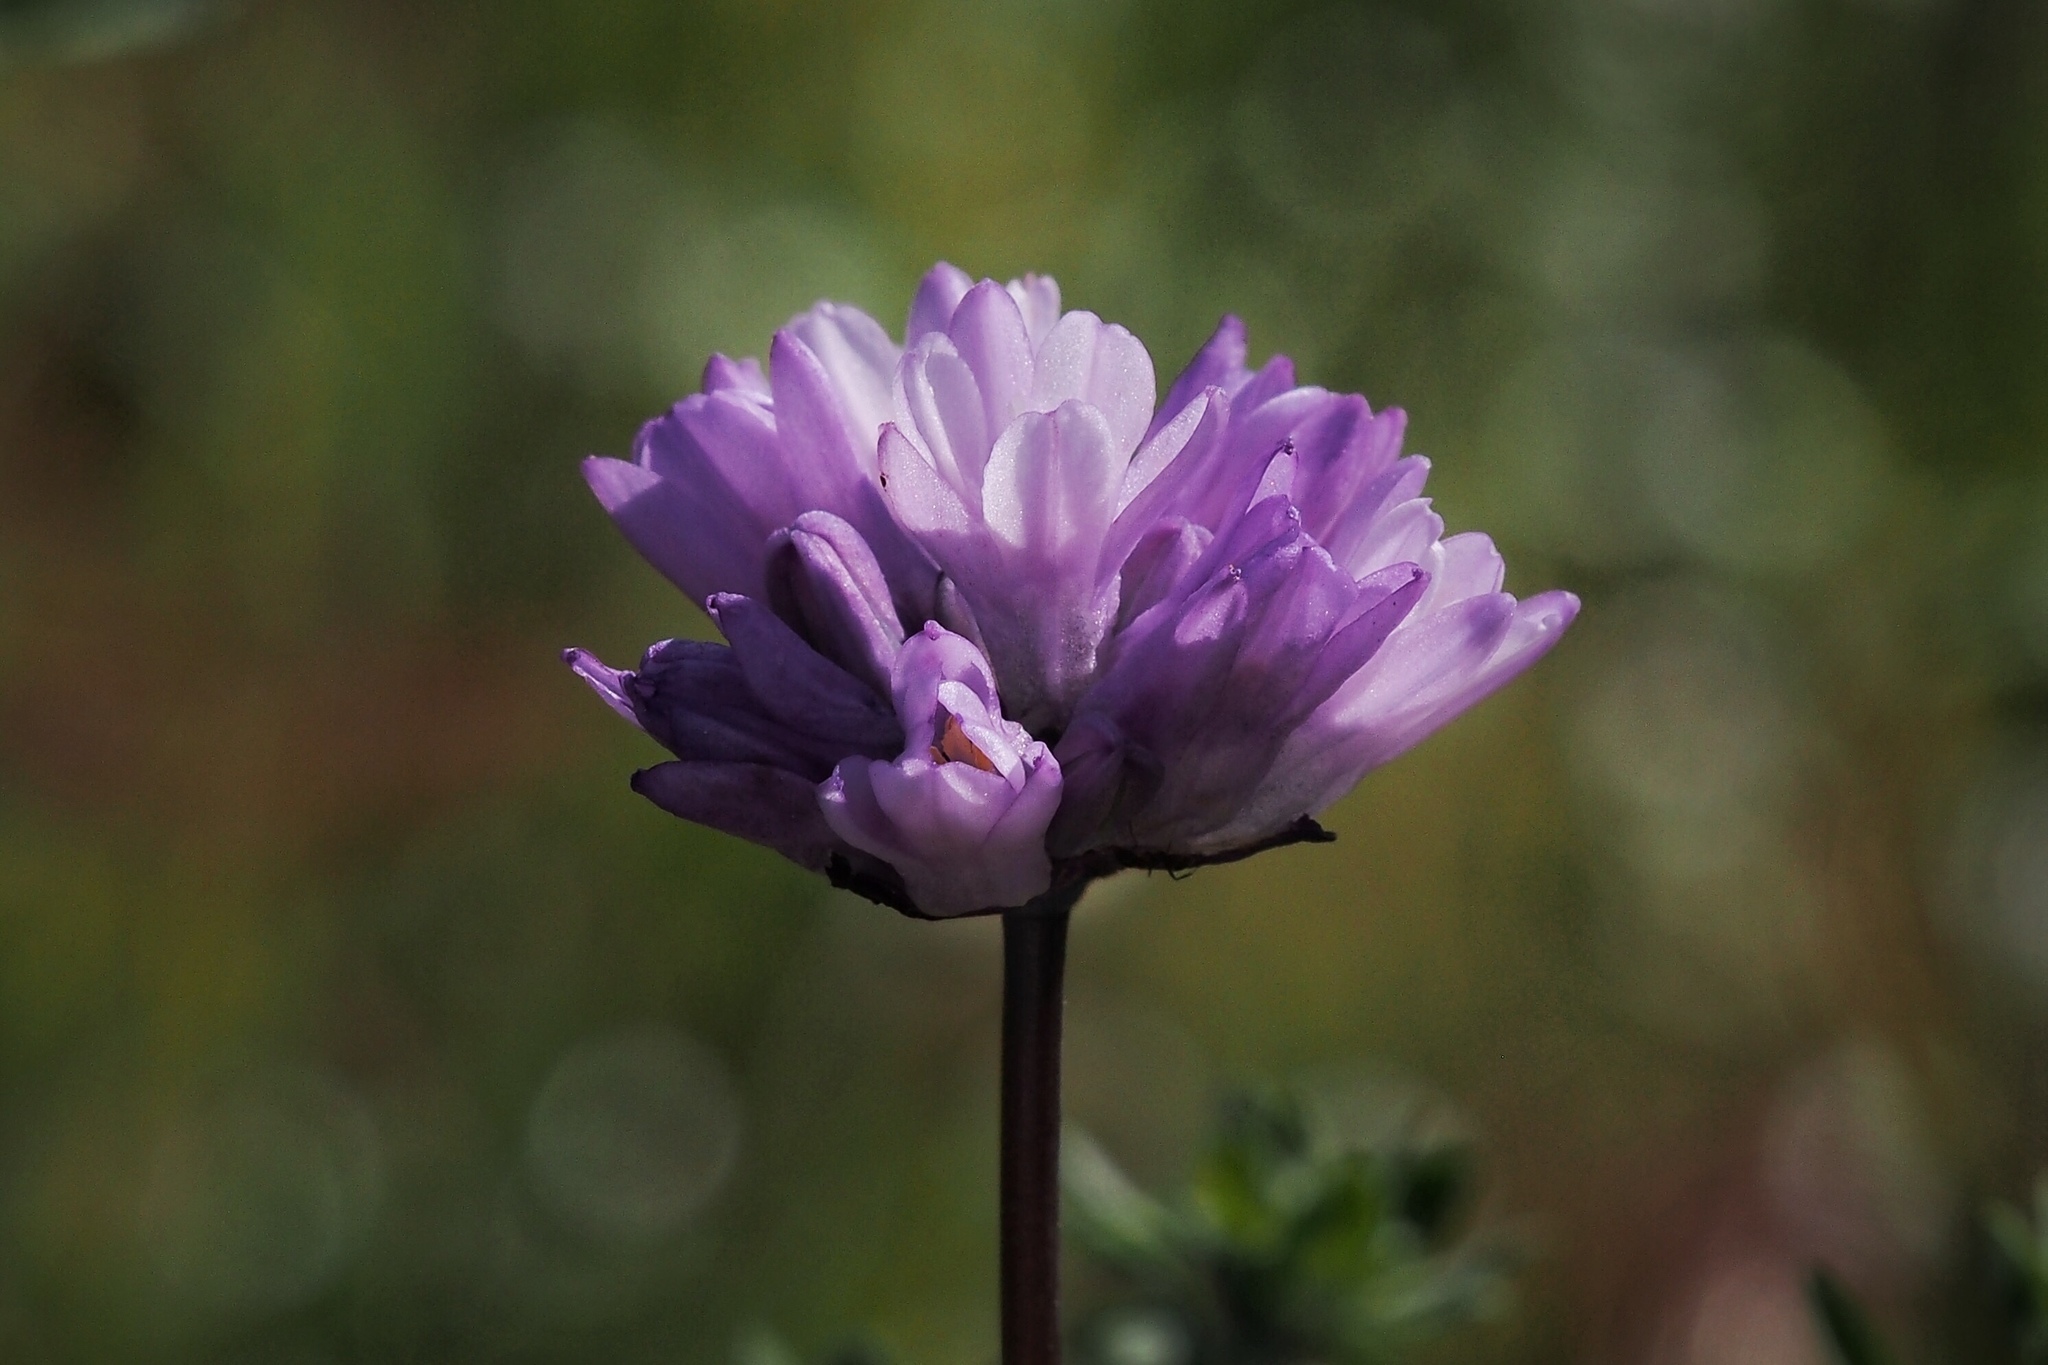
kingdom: Plantae
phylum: Tracheophyta
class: Liliopsida
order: Asparagales
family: Asparagaceae
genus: Dipterostemon
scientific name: Dipterostemon capitatus
